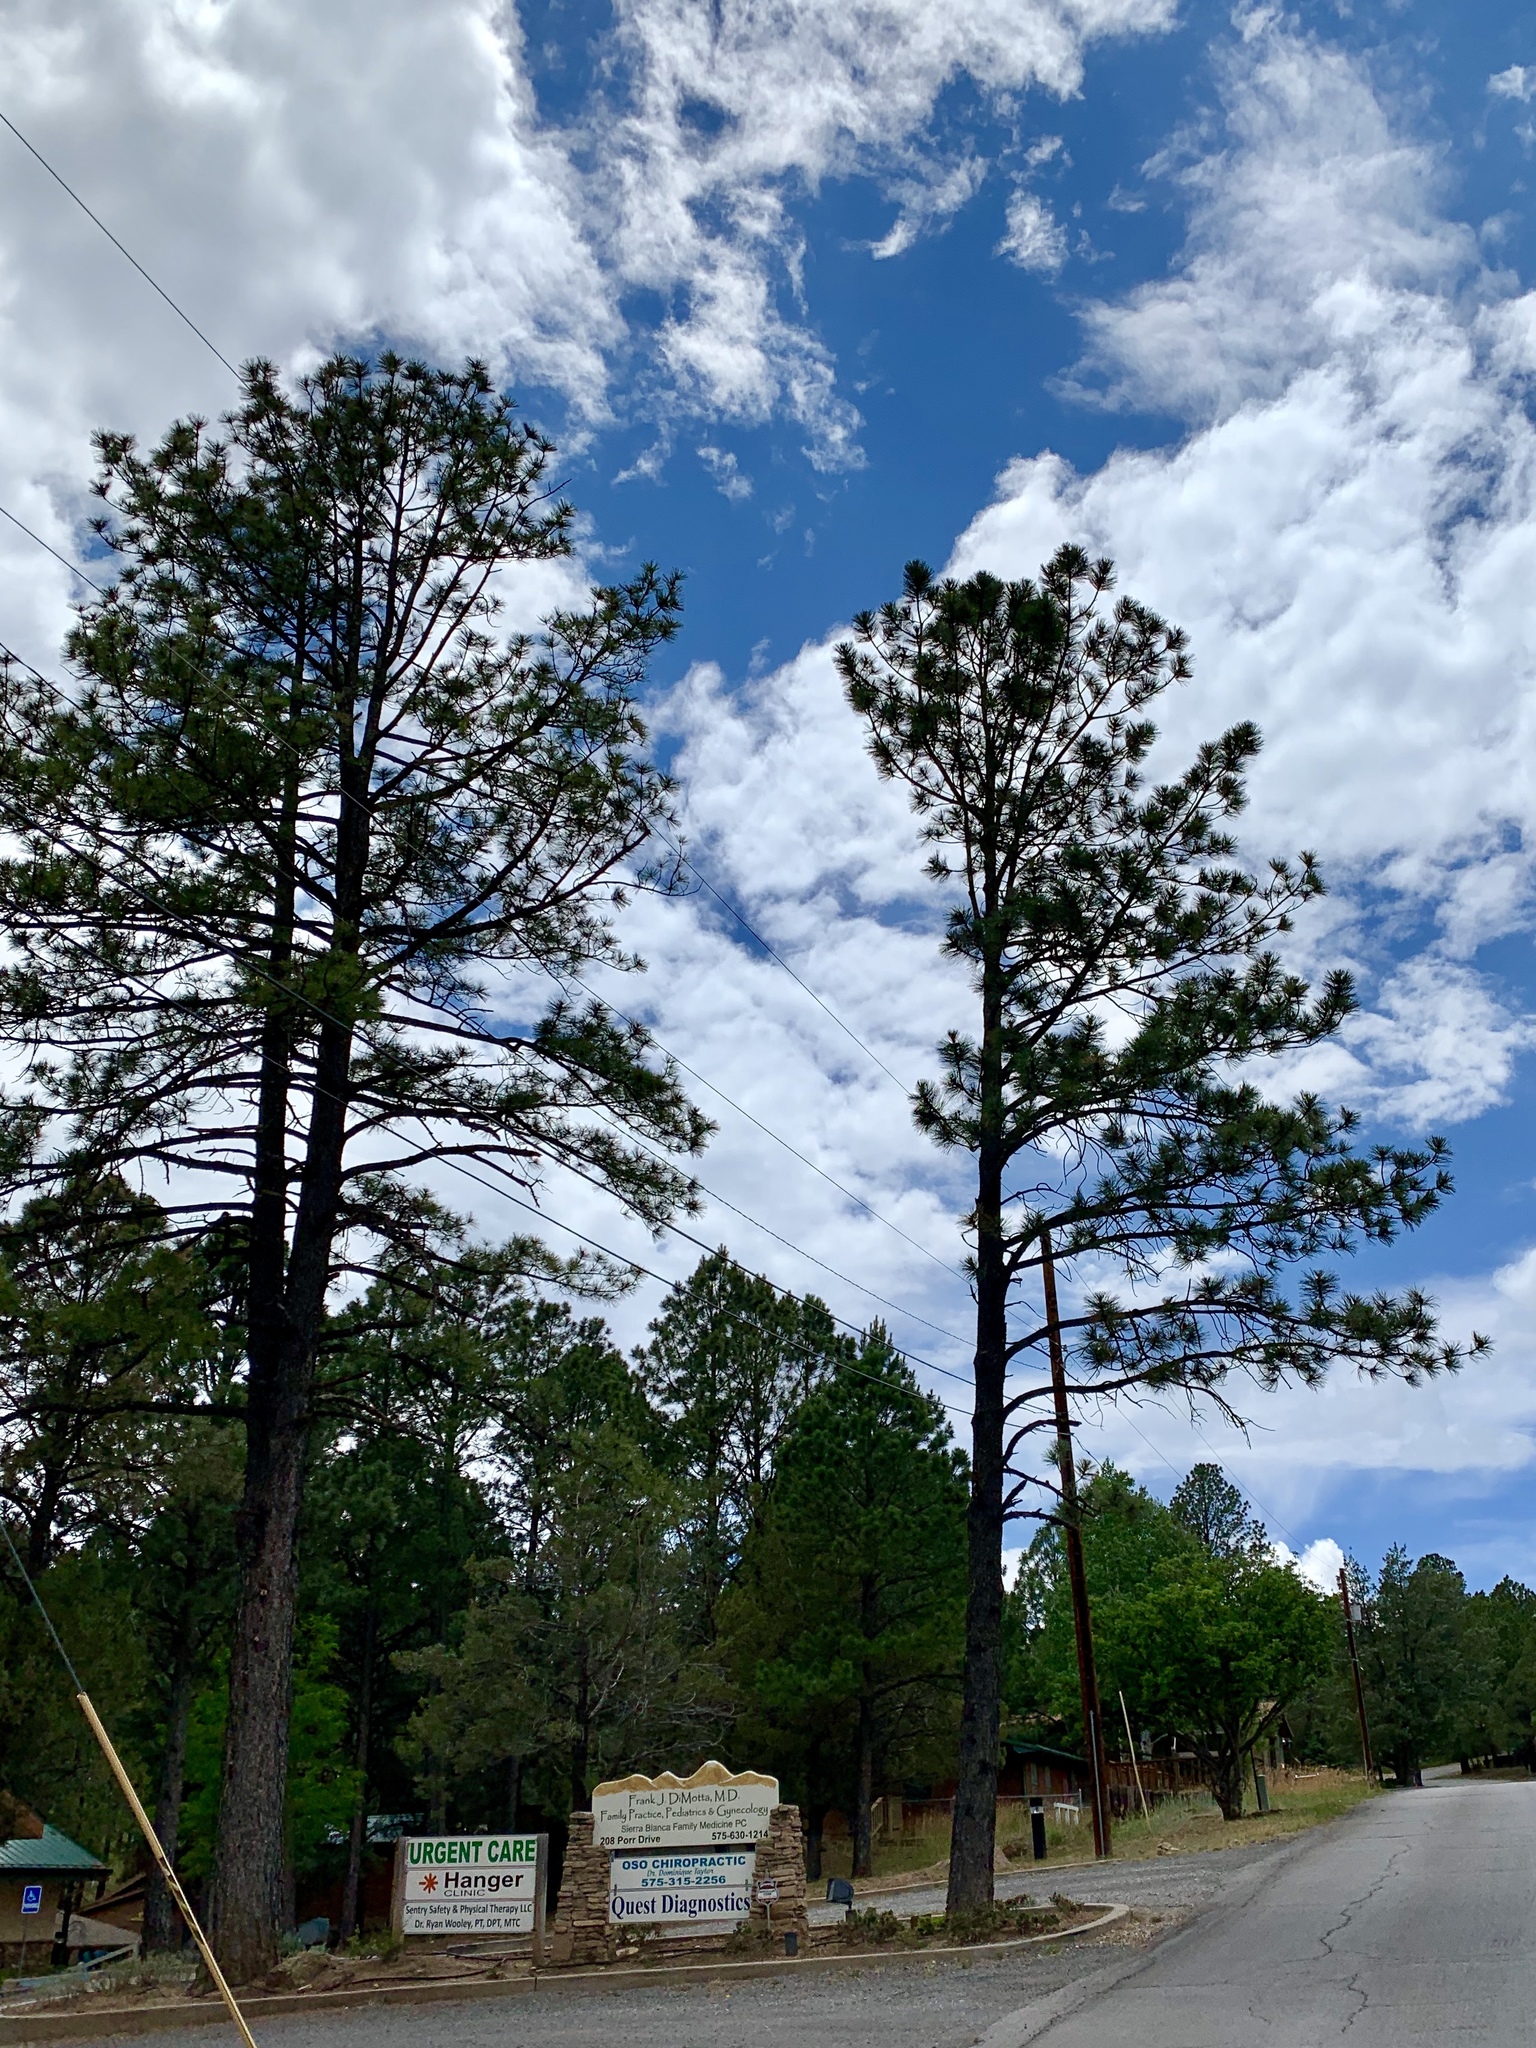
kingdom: Plantae
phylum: Tracheophyta
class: Pinopsida
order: Pinales
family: Pinaceae
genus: Pinus
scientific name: Pinus ponderosa
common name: Western yellow-pine
